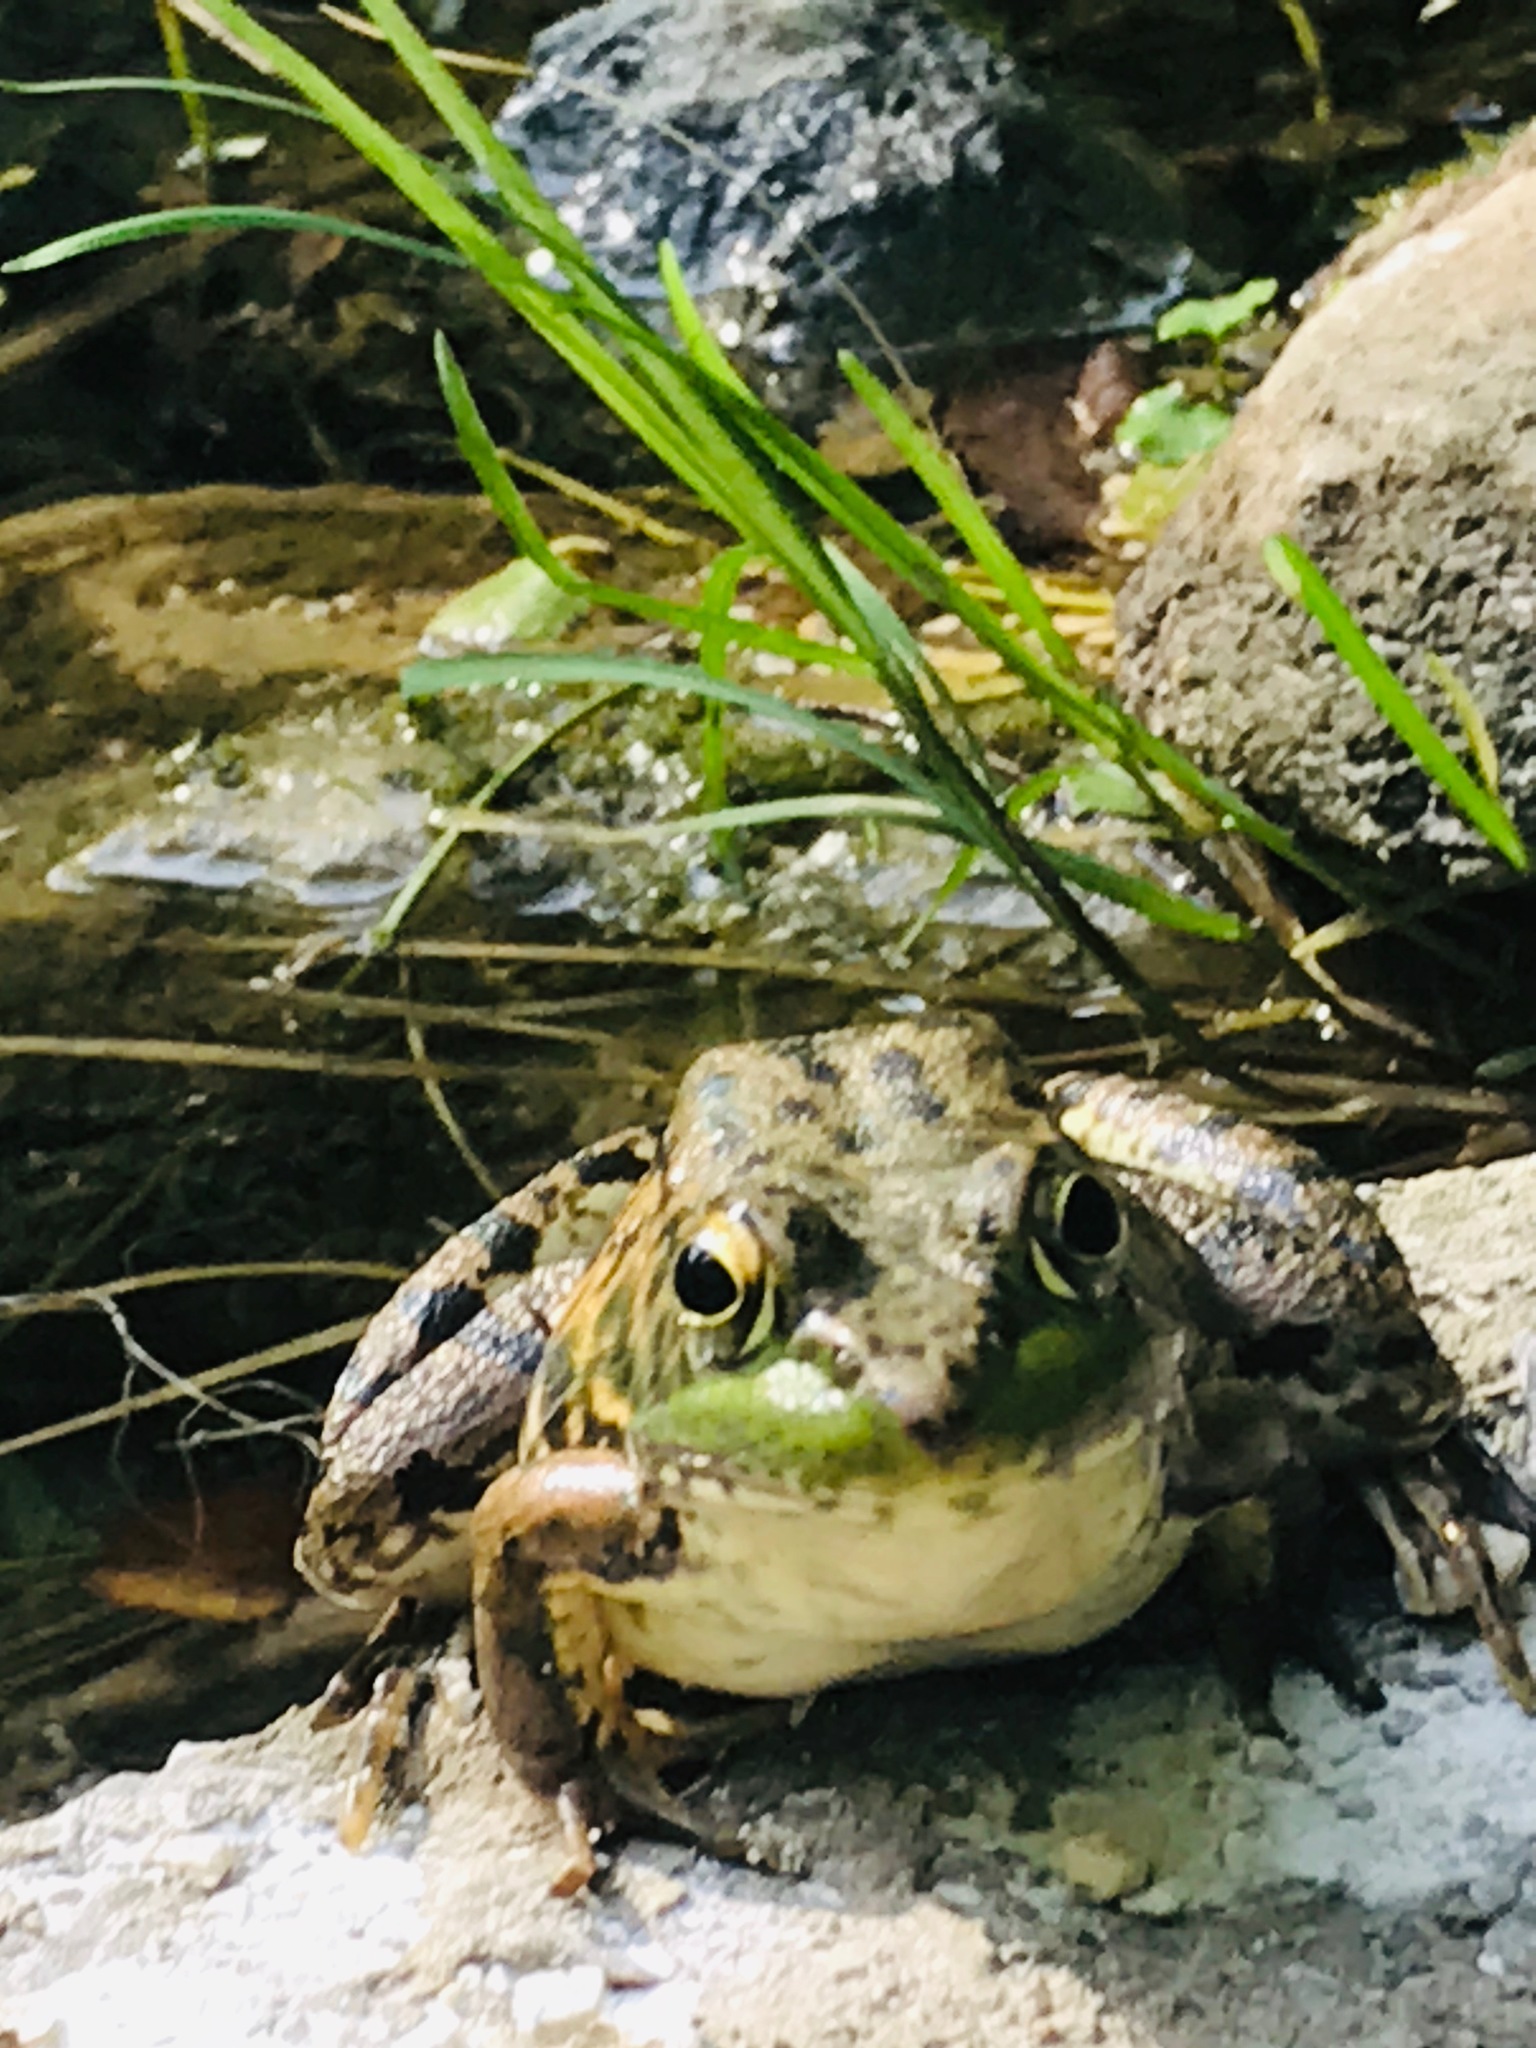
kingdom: Animalia
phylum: Chordata
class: Amphibia
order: Anura
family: Ranidae
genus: Lithobates
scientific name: Lithobates clamitans
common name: Green frog
